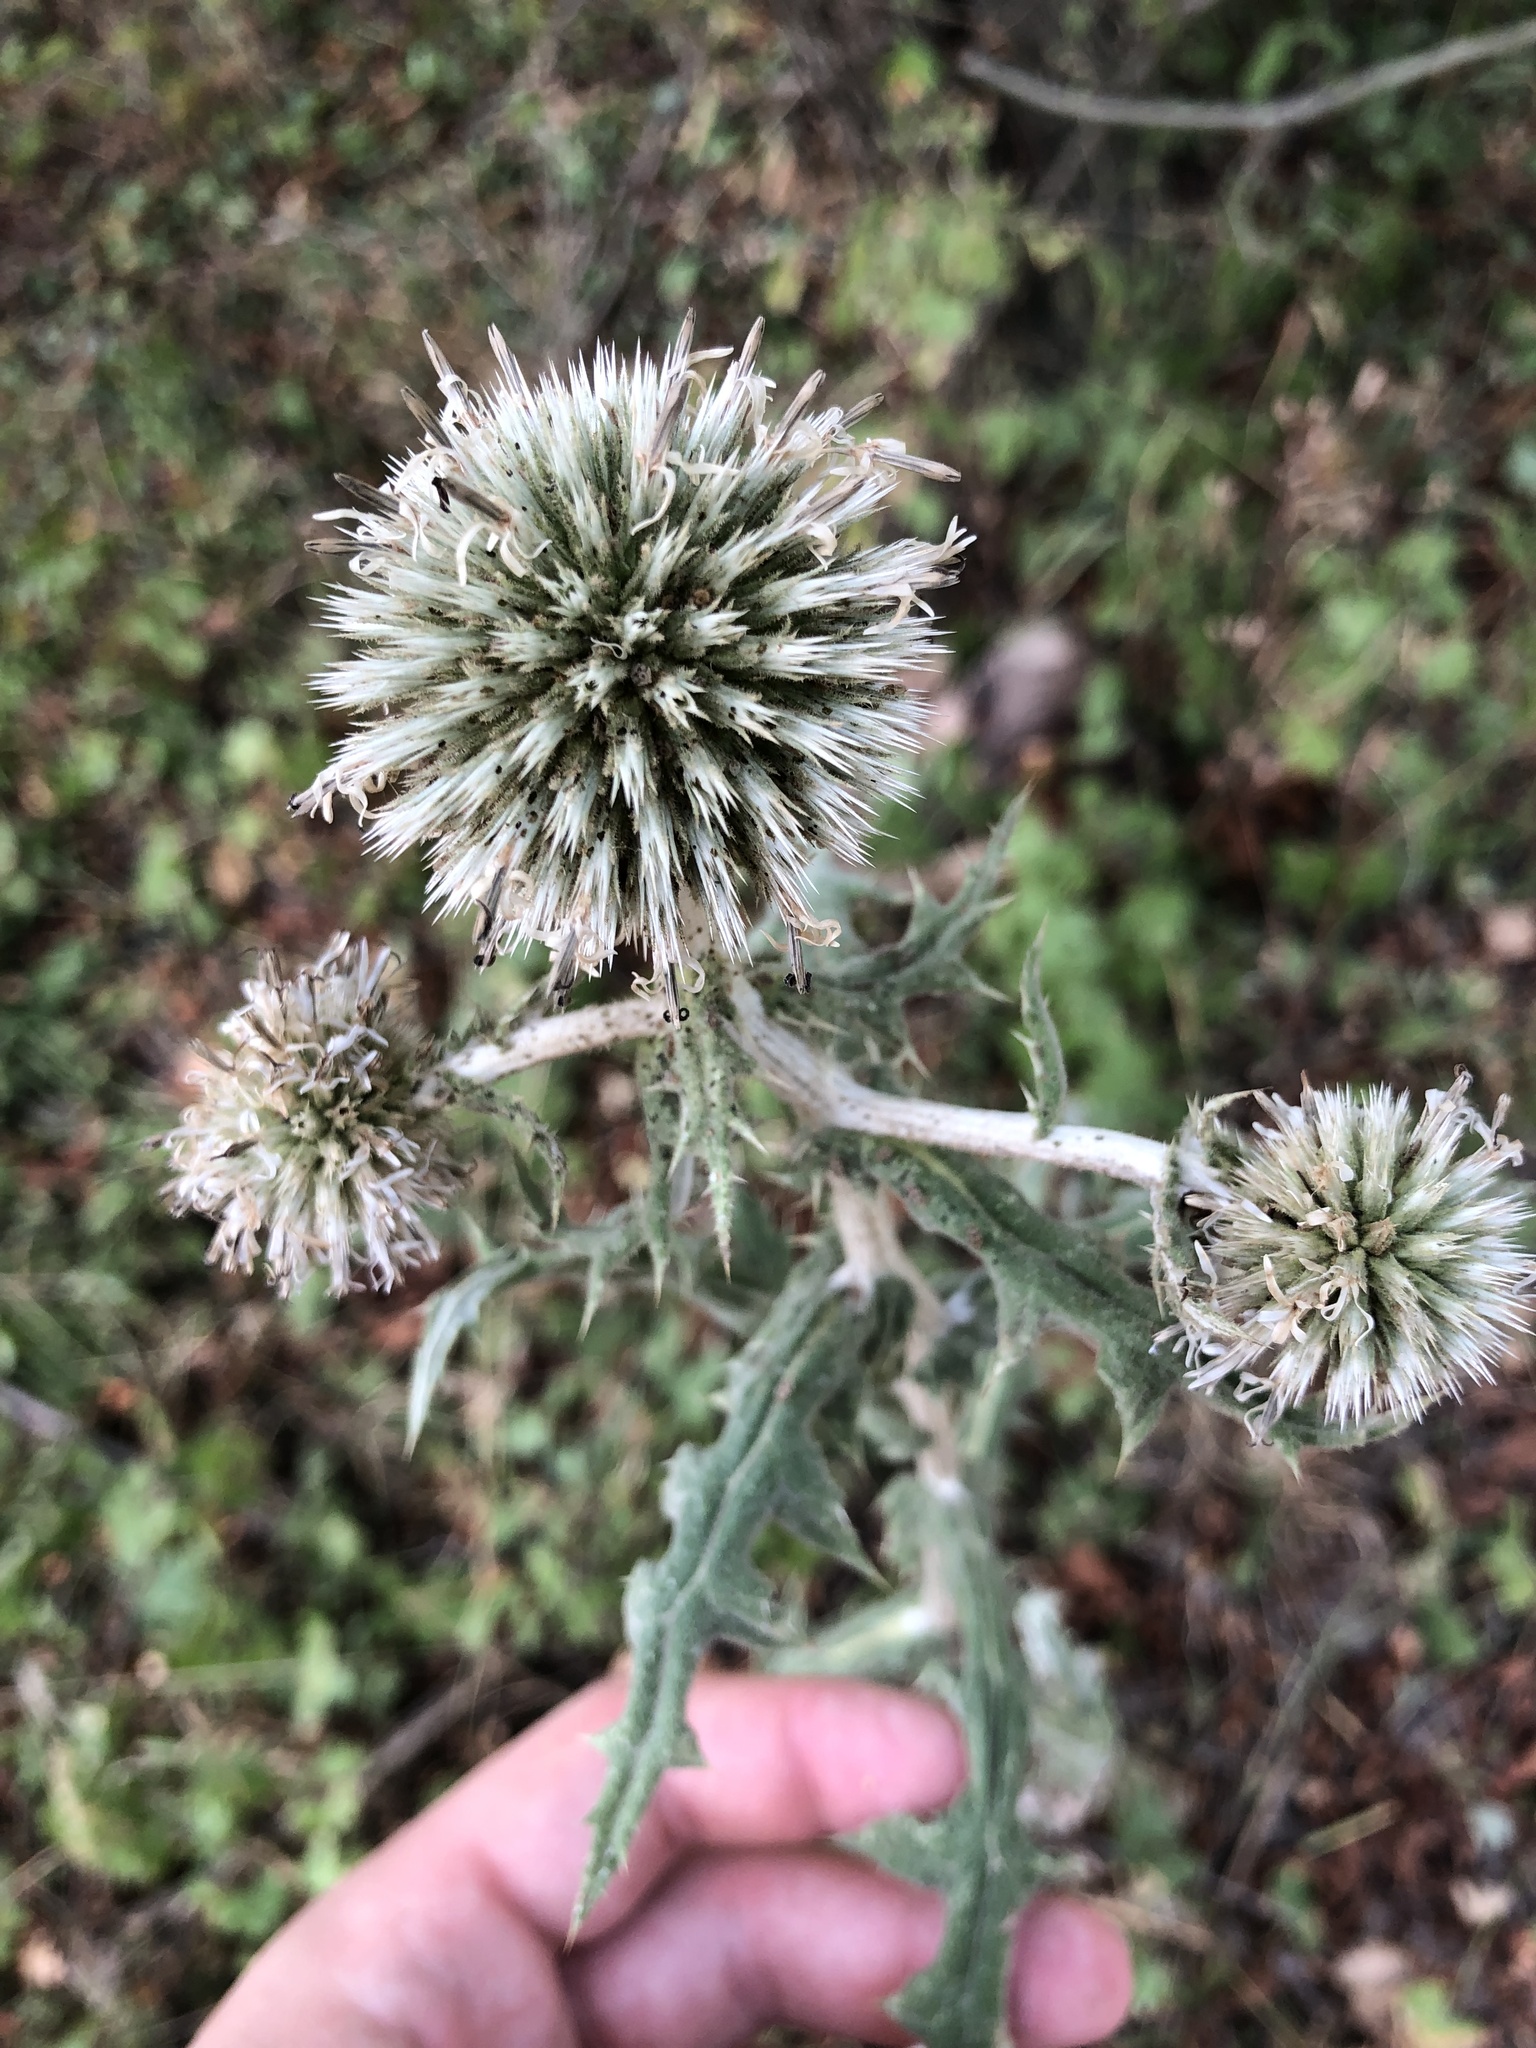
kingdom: Plantae
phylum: Tracheophyta
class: Magnoliopsida
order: Asterales
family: Asteraceae
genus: Echinops
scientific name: Echinops sphaerocephalus
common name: Glandular globe-thistle
